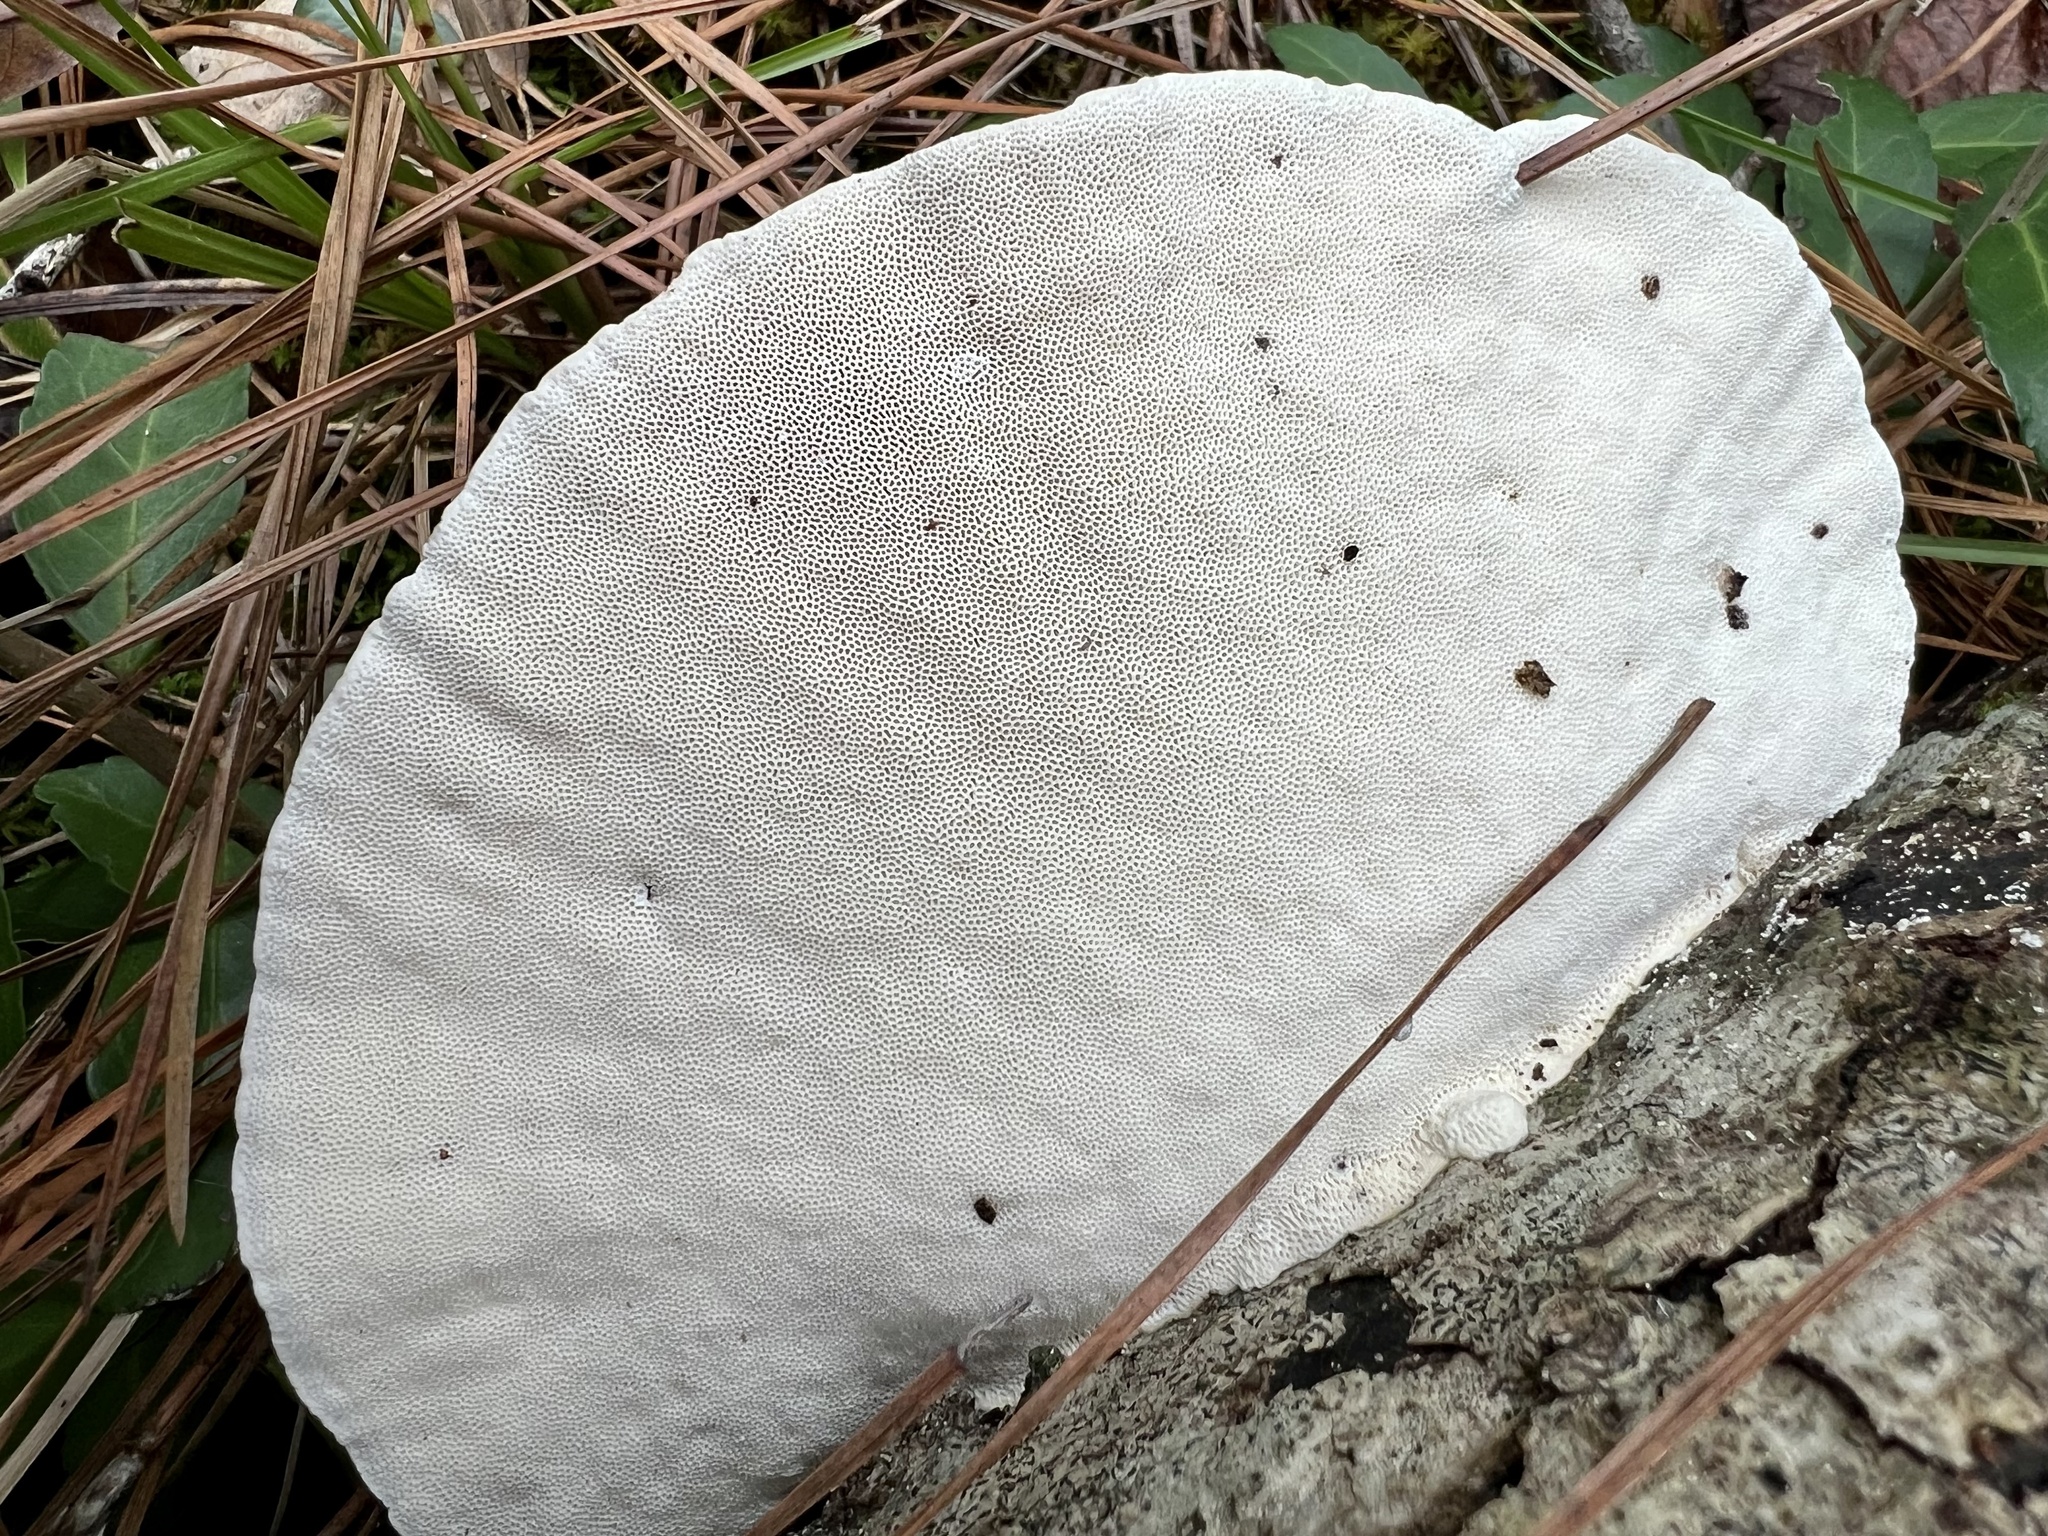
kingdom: Fungi
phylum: Basidiomycota
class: Agaricomycetes
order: Polyporales
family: Polyporaceae
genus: Trametes
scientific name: Trametes lactinea
